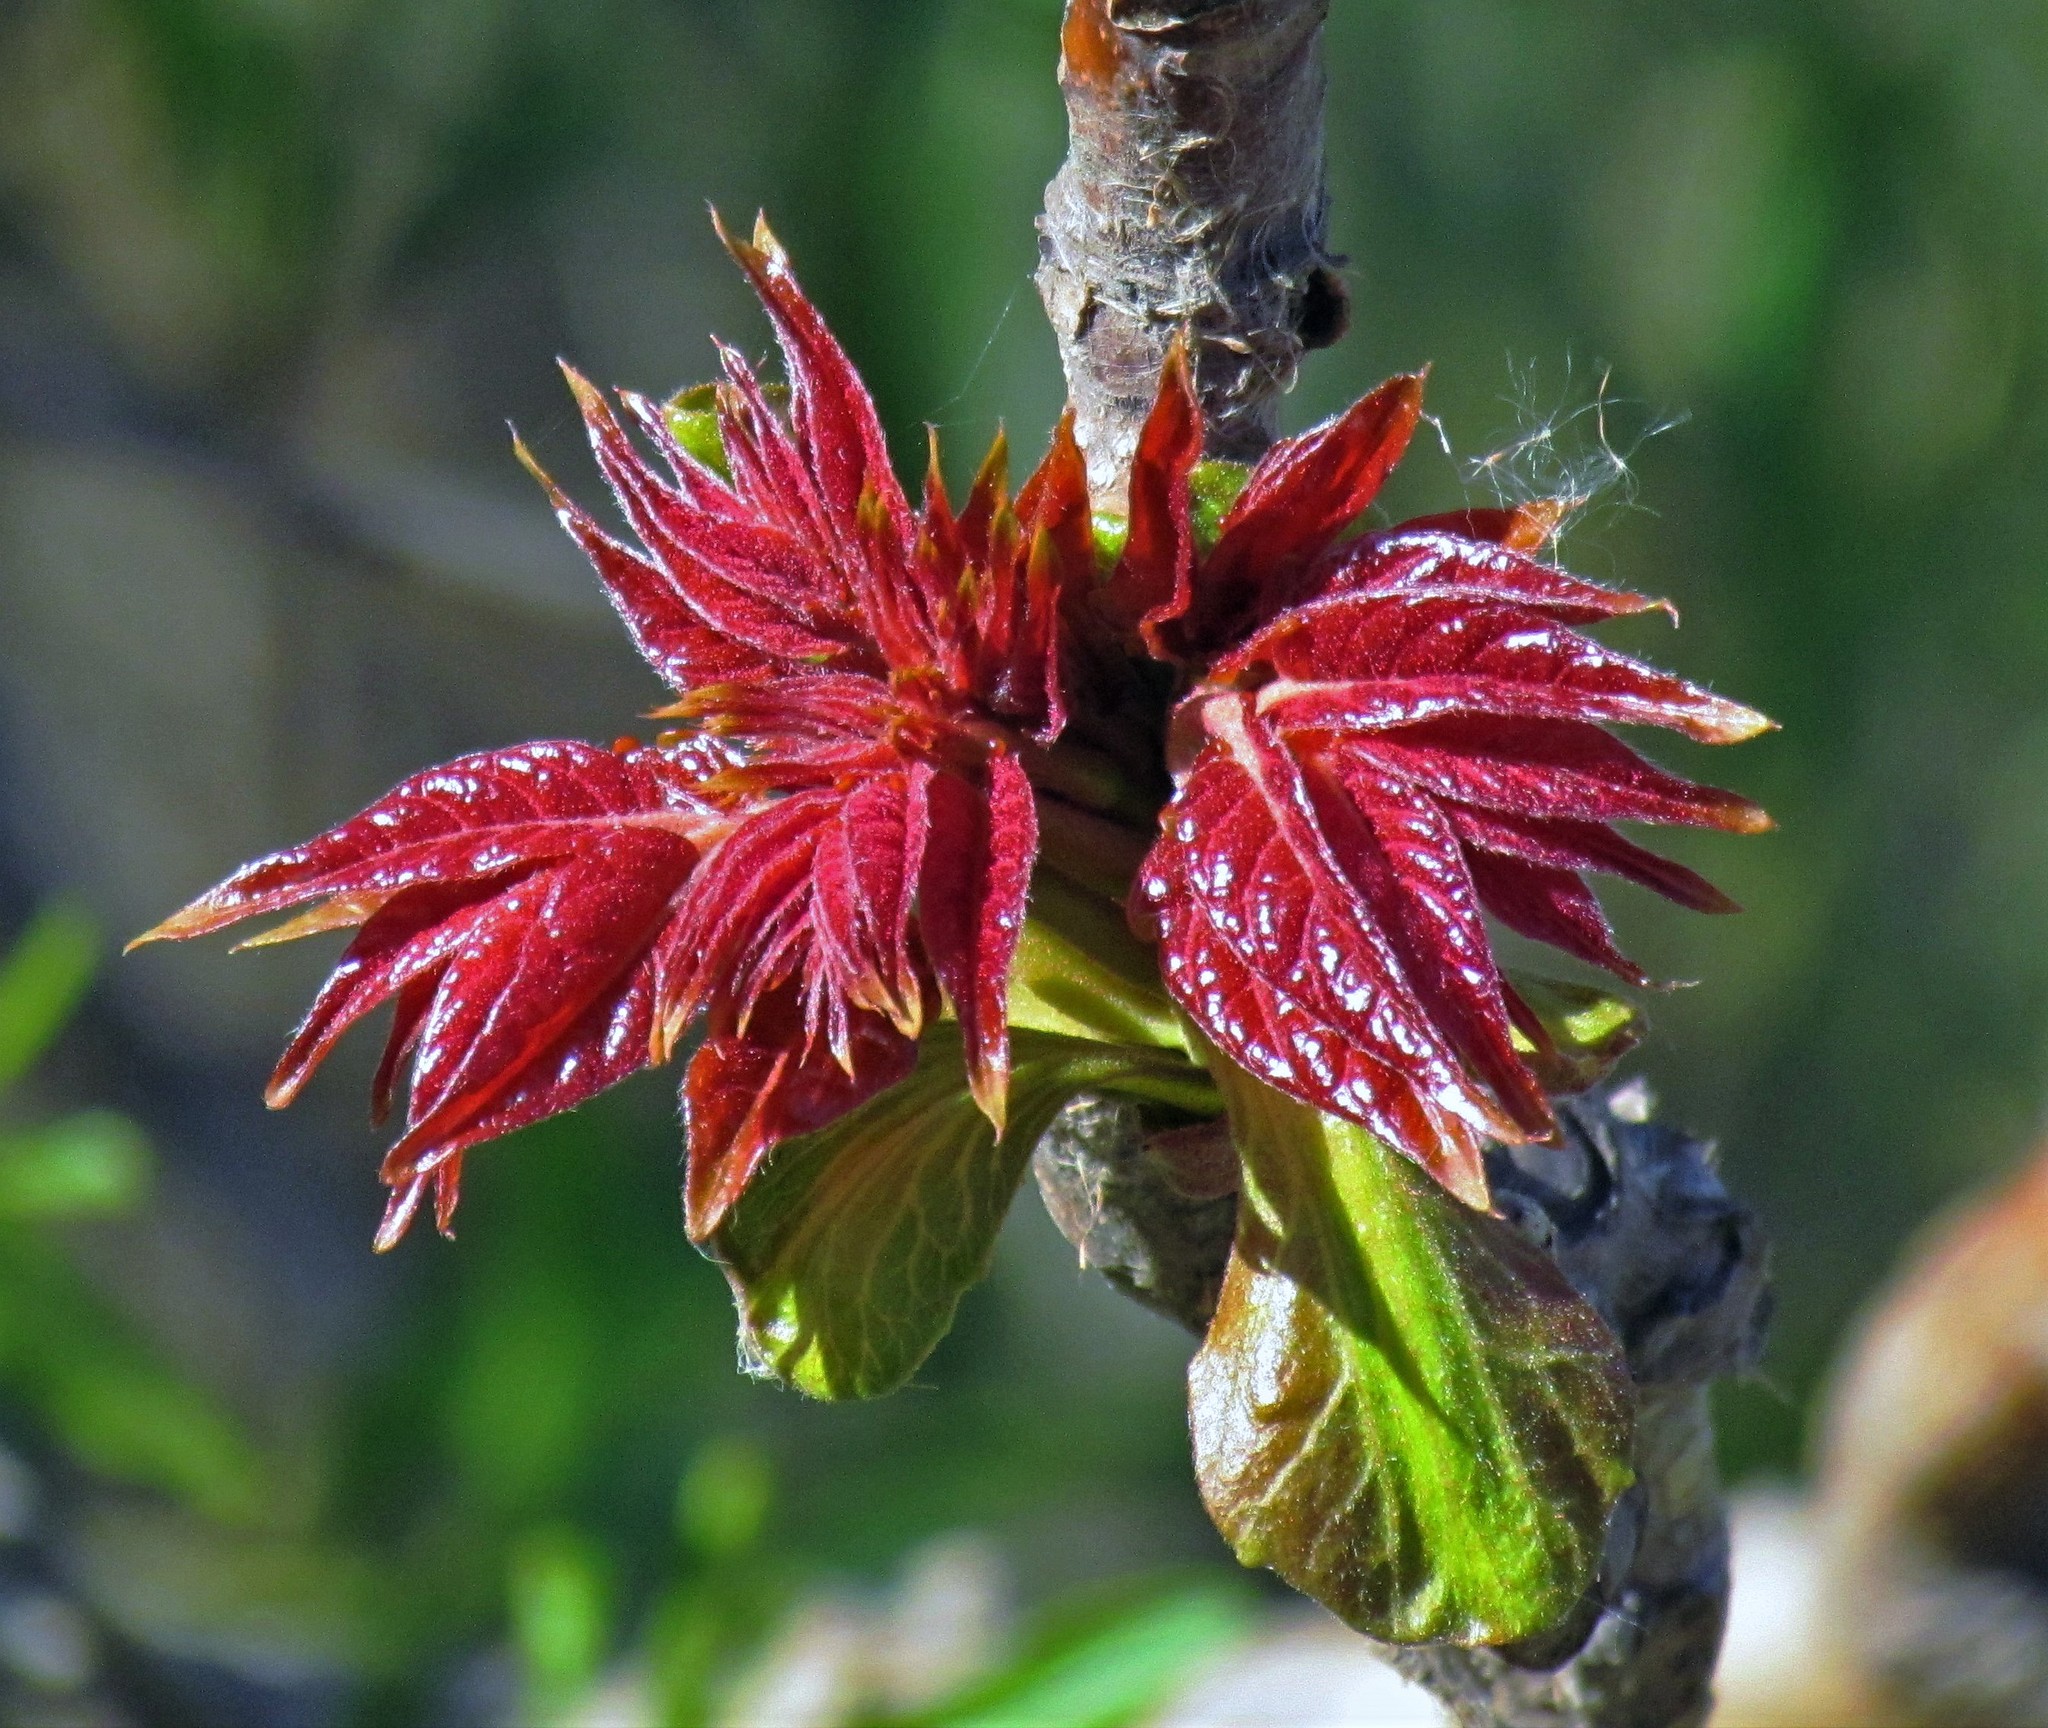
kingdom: Plantae
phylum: Tracheophyta
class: Magnoliopsida
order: Sapindales
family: Simaroubaceae
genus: Ailanthus
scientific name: Ailanthus altissima
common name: Tree-of-heaven
